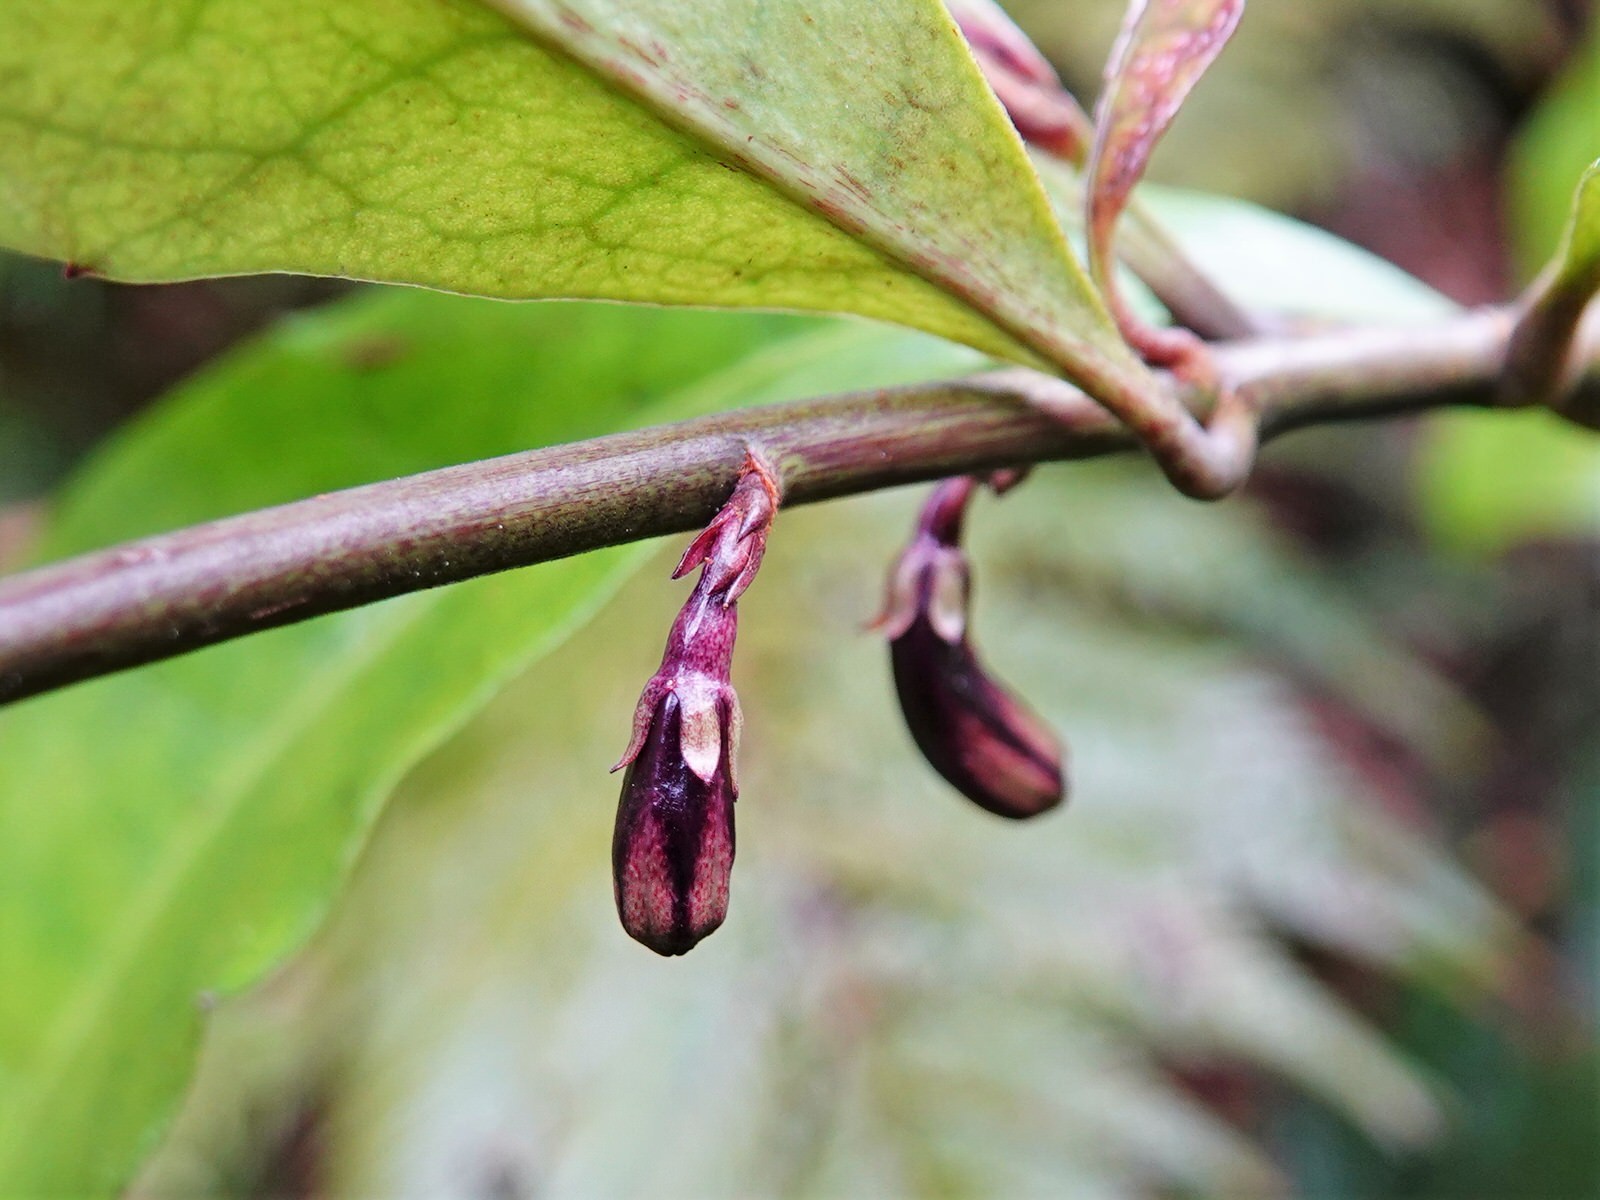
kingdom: Plantae
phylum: Tracheophyta
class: Magnoliopsida
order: Asterales
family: Alseuosmiaceae
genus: Alseuosmia
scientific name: Alseuosmia macrophylla
